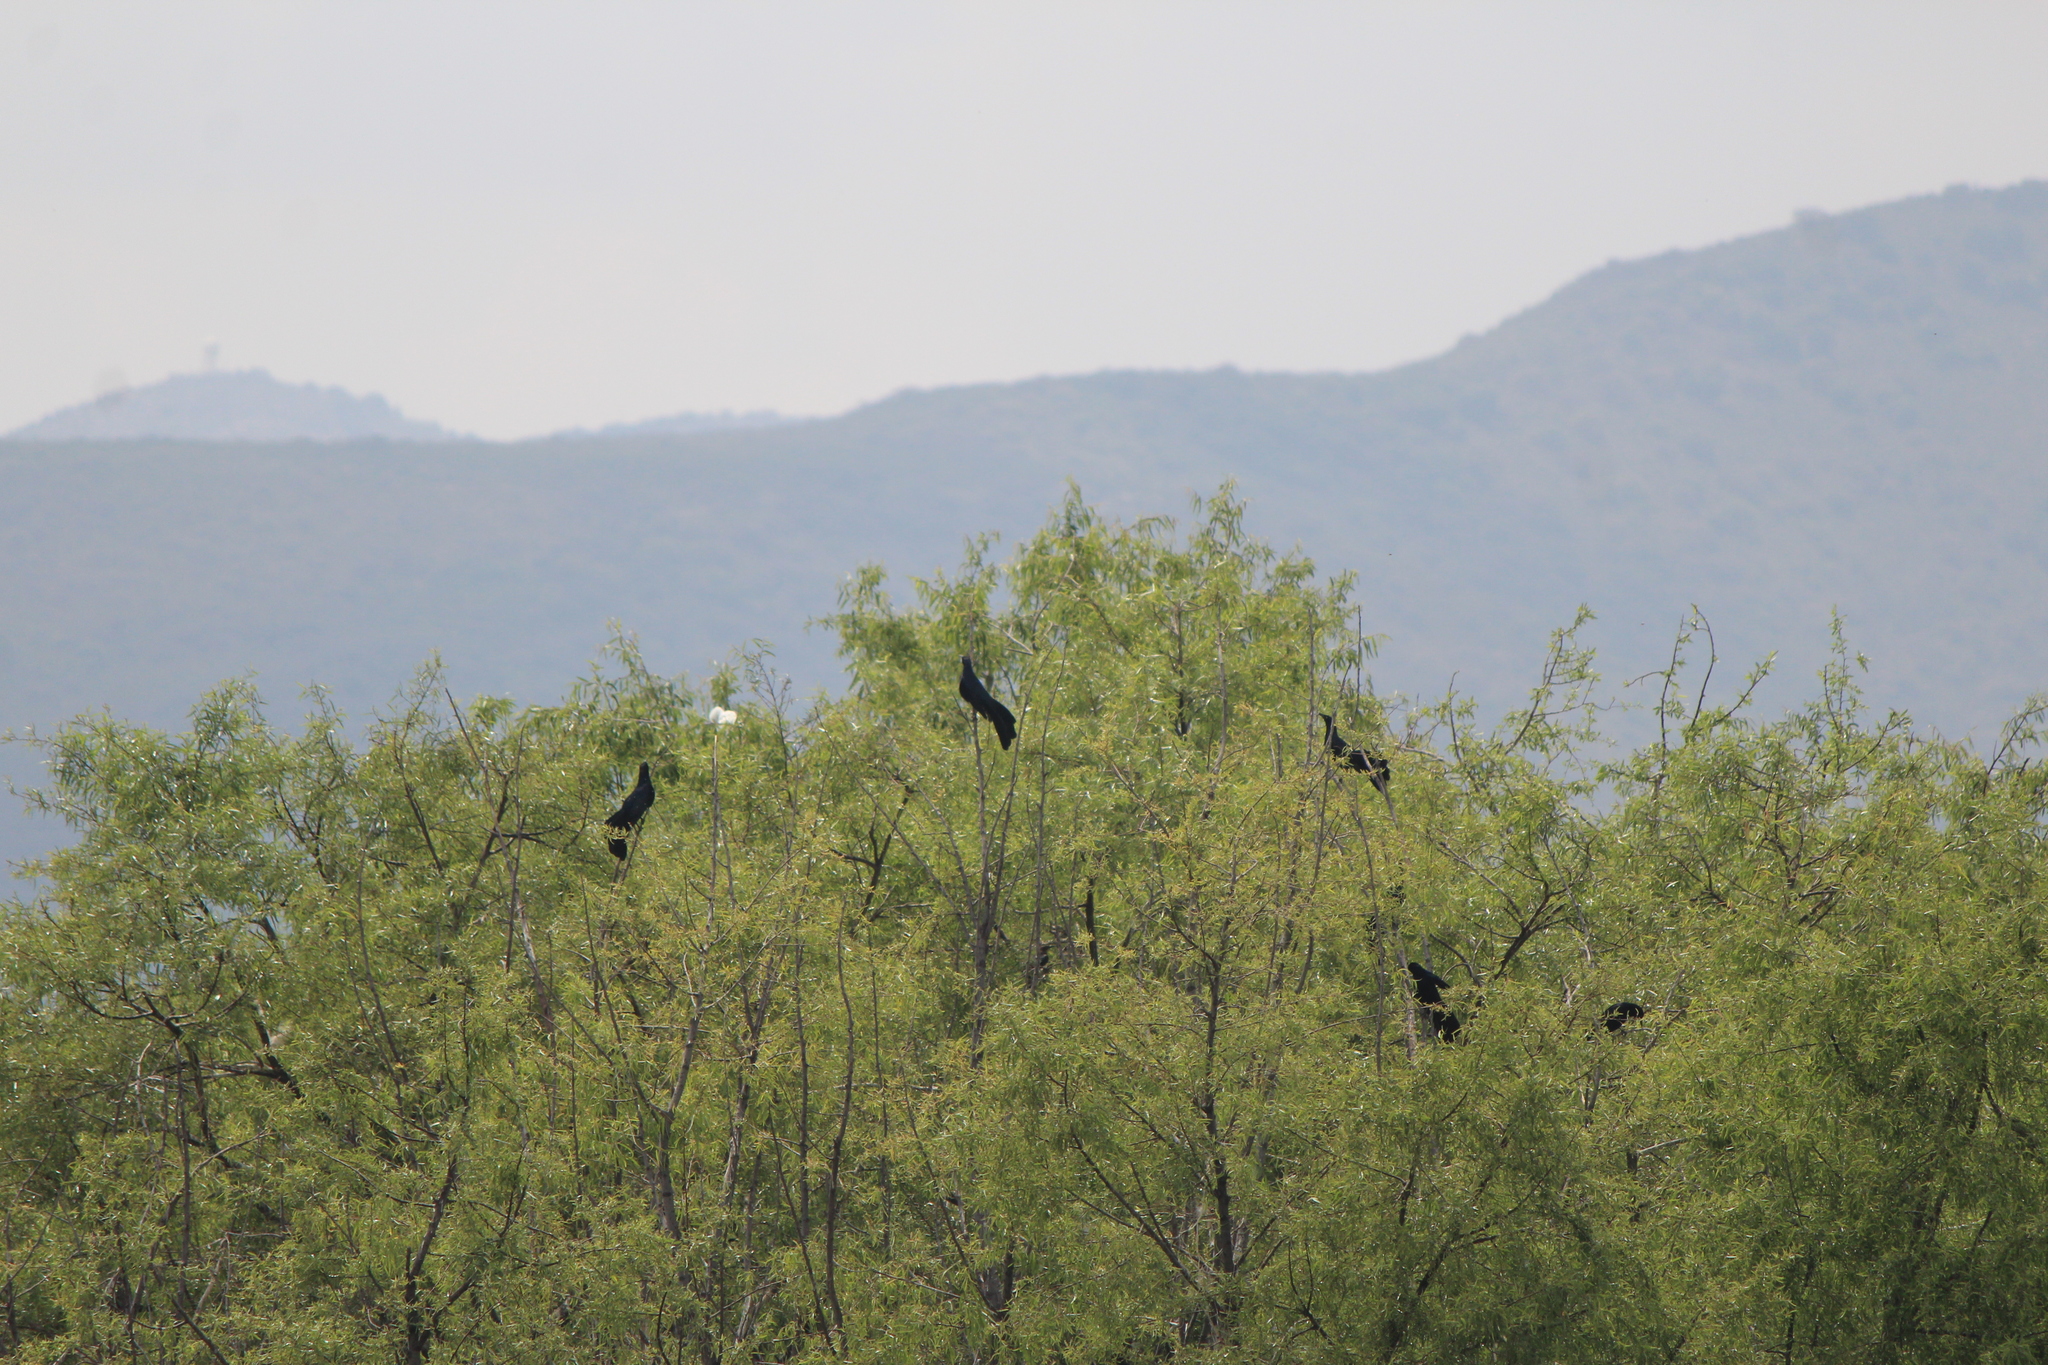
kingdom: Animalia
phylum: Chordata
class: Aves
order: Passeriformes
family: Icteridae
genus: Quiscalus
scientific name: Quiscalus mexicanus
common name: Great-tailed grackle
